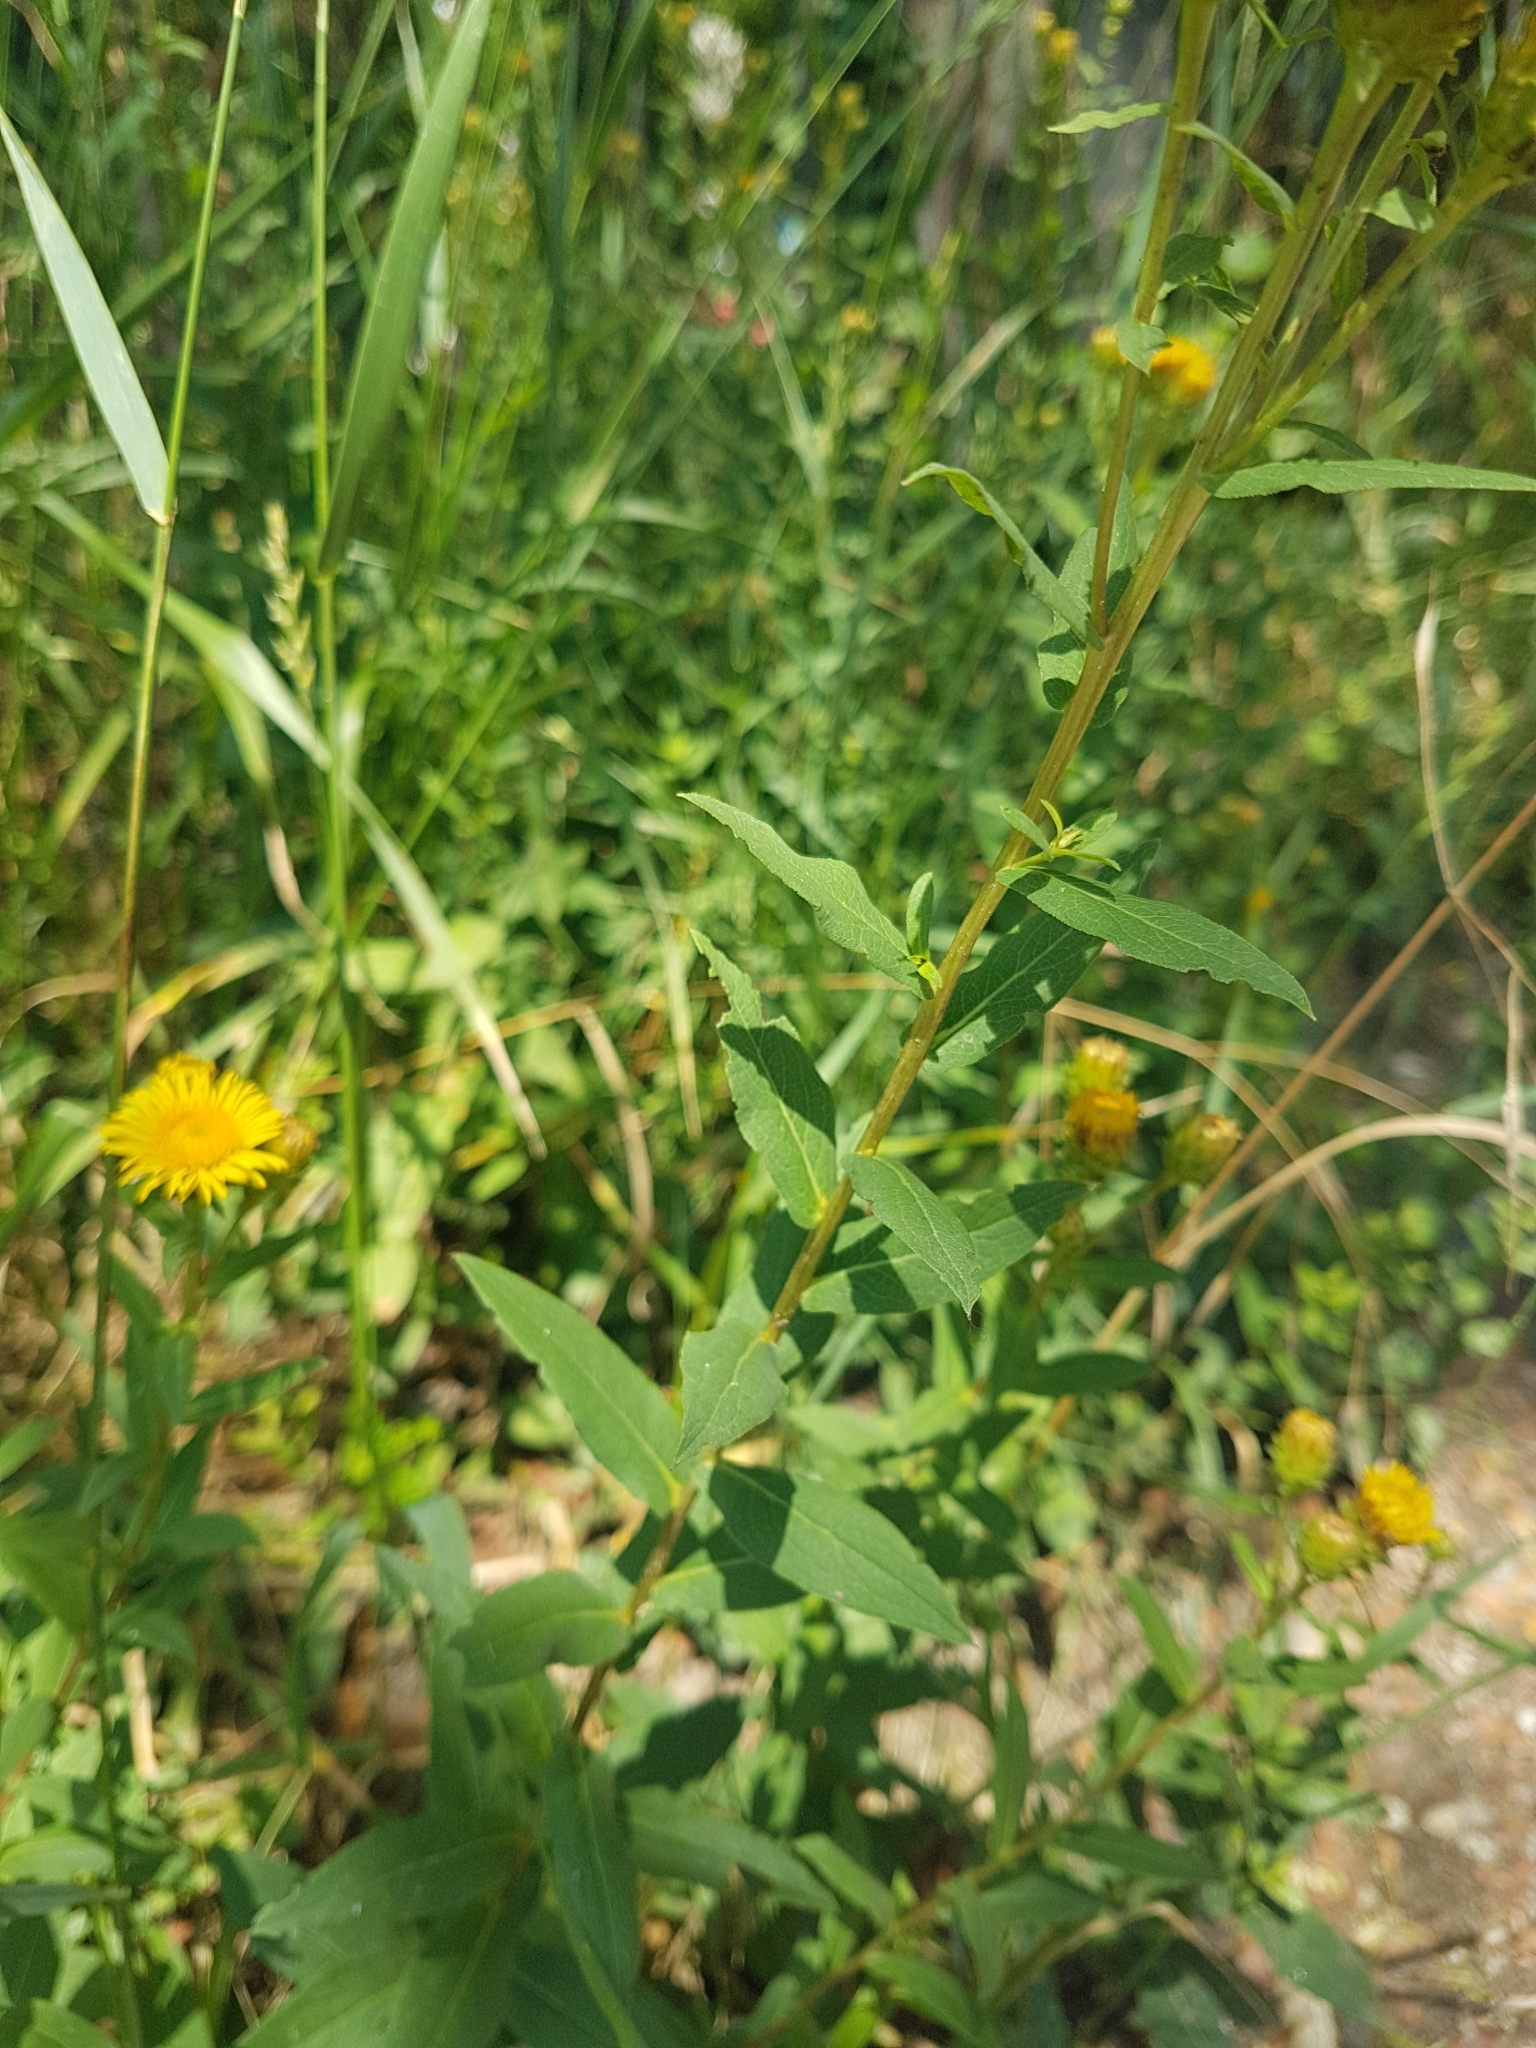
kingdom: Plantae
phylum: Tracheophyta
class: Magnoliopsida
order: Asterales
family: Asteraceae
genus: Pentanema
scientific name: Pentanema asperum
